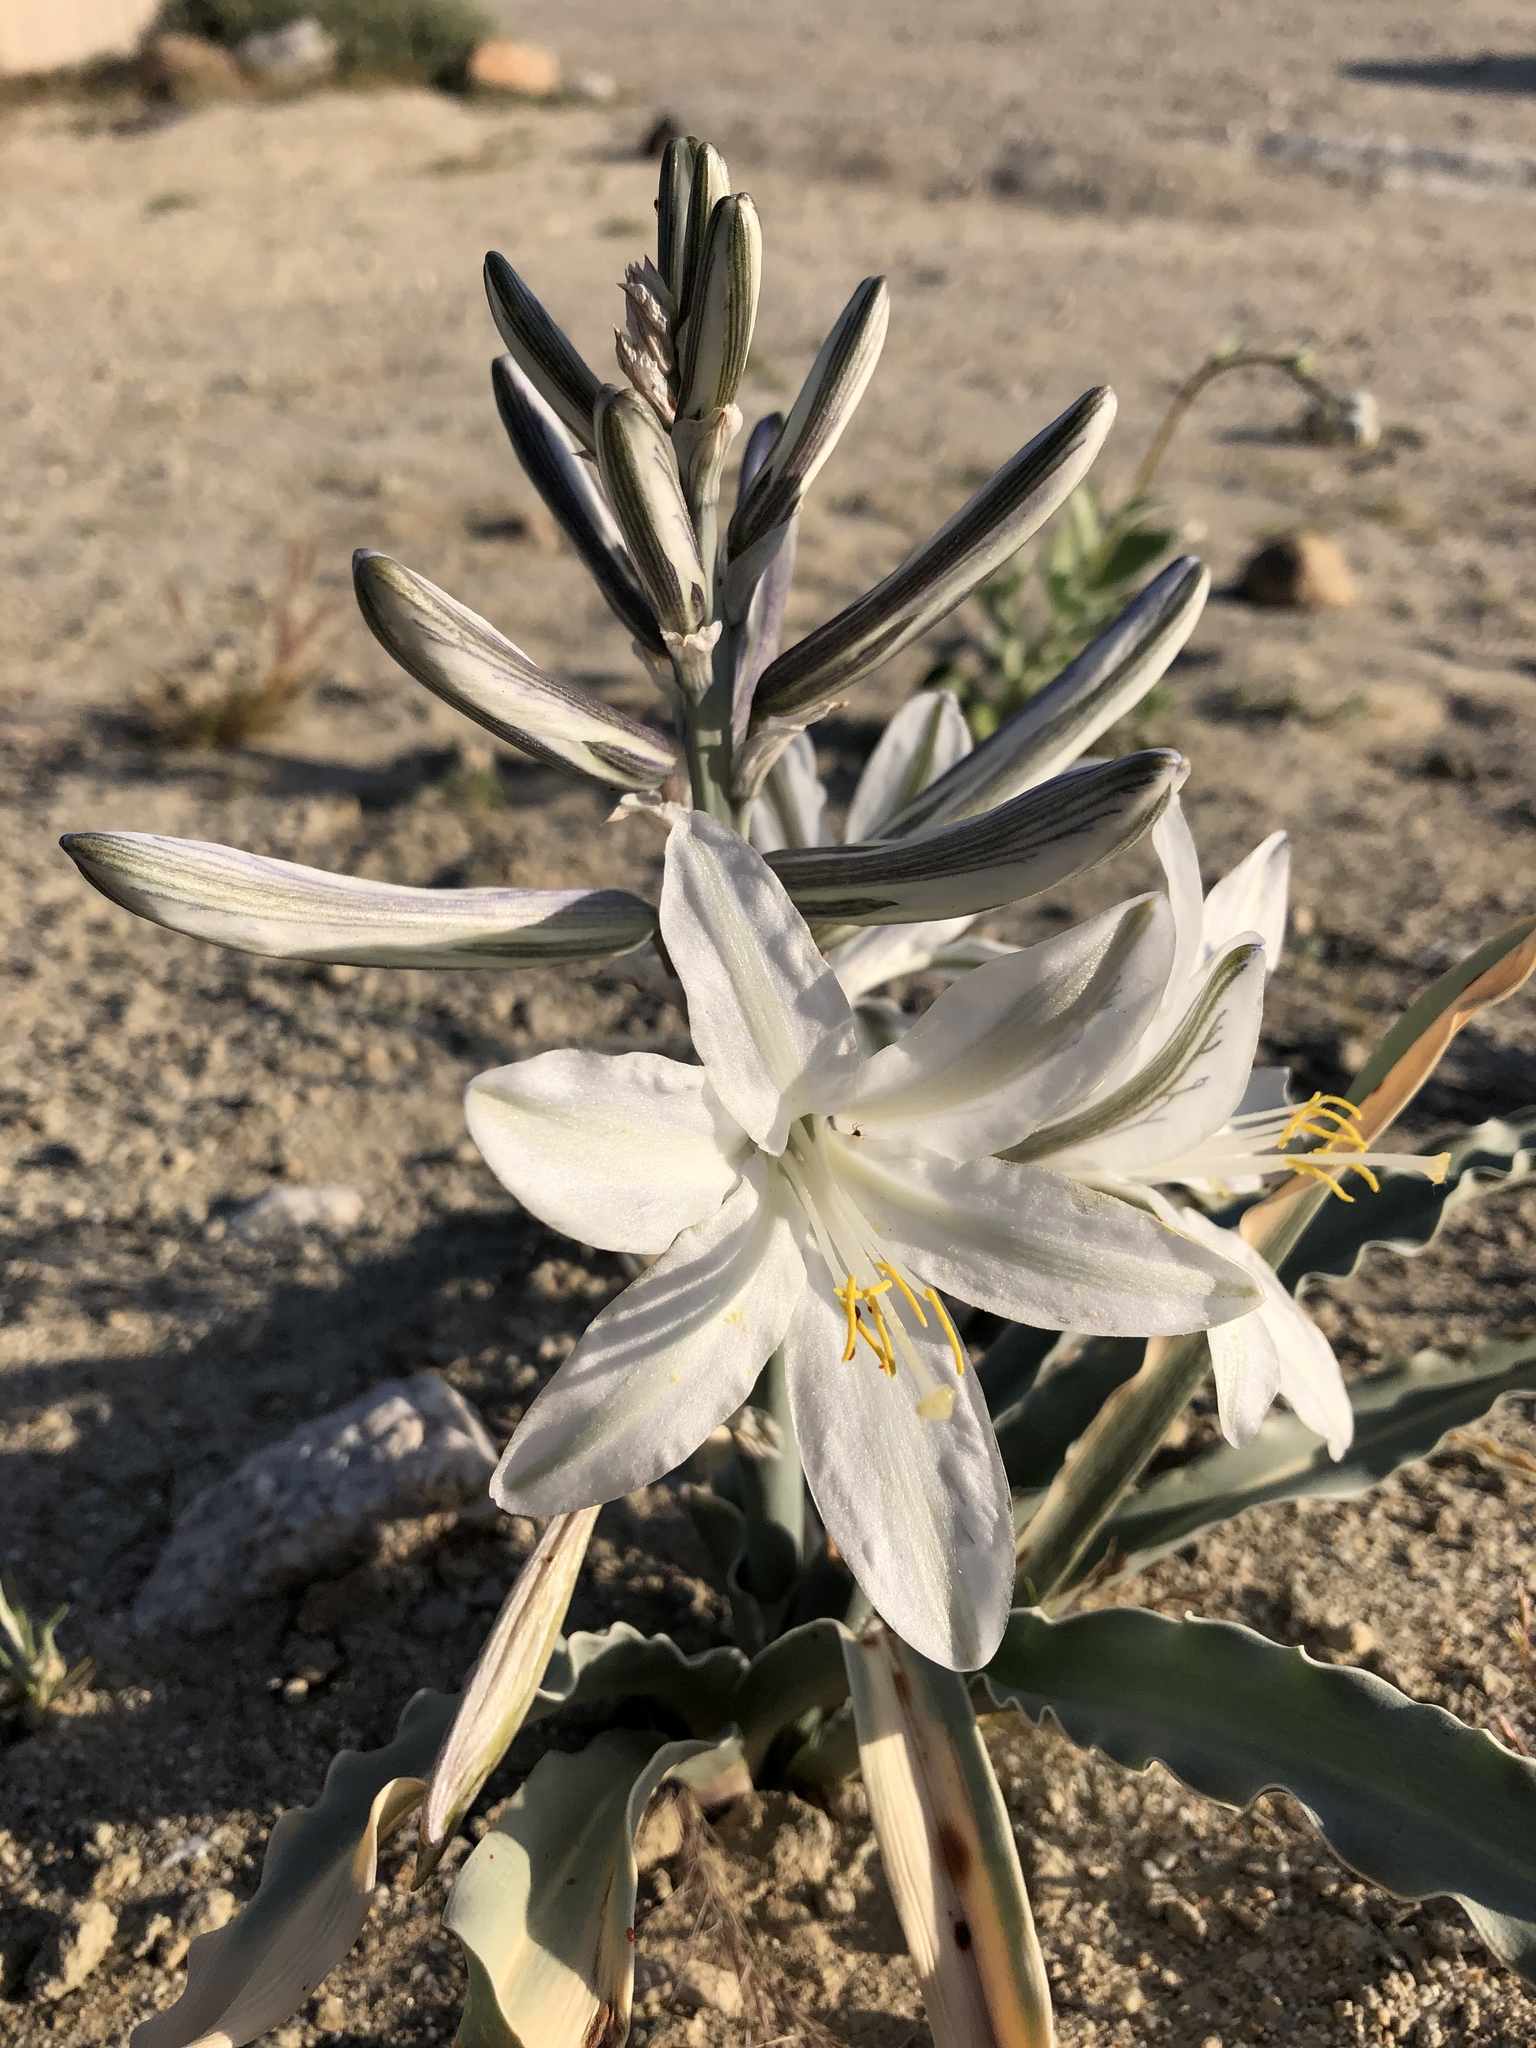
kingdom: Plantae
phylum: Tracheophyta
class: Liliopsida
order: Asparagales
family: Asparagaceae
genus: Hesperocallis
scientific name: Hesperocallis undulata
